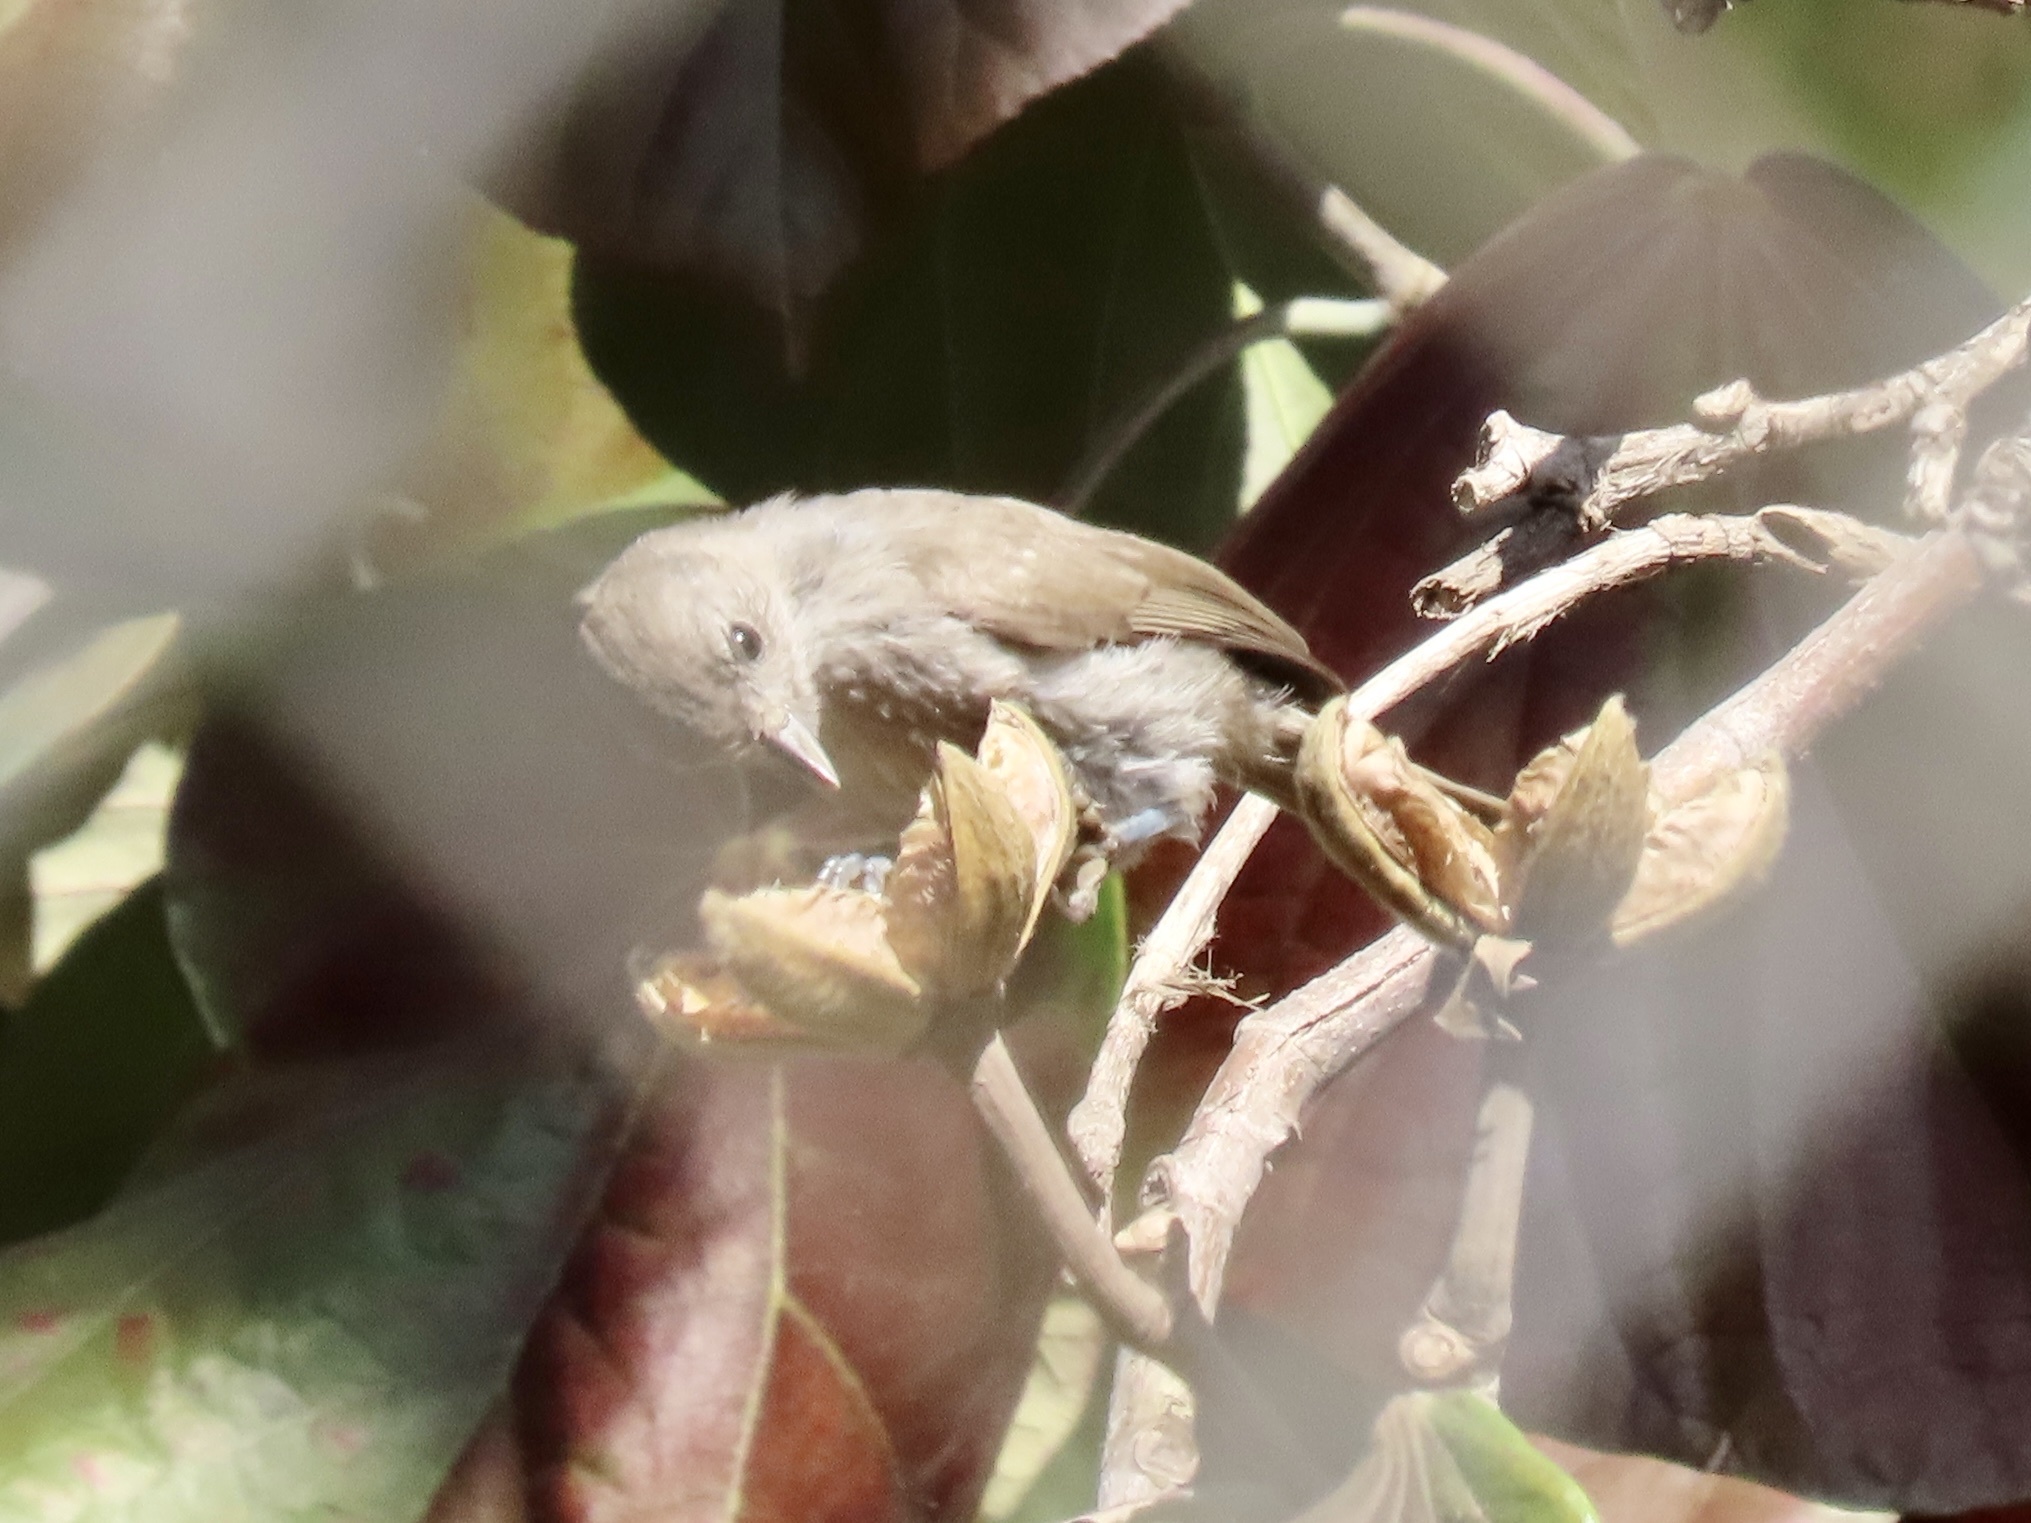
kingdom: Animalia
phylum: Chordata
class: Aves
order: Passeriformes
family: Paridae
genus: Baeolophus
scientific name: Baeolophus inornatus
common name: Oak titmouse
